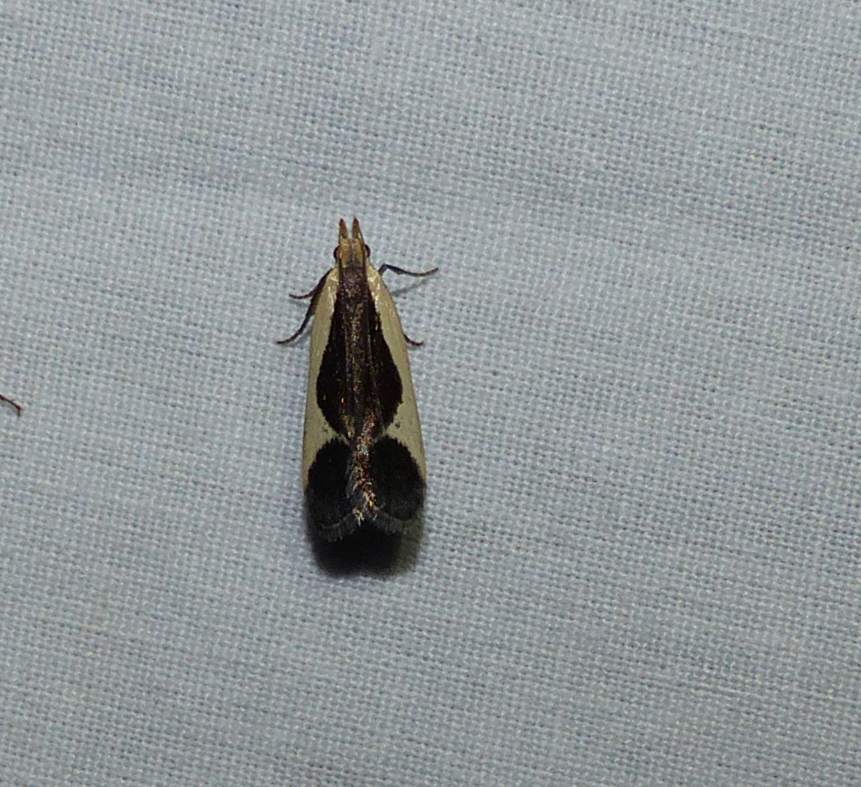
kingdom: Animalia
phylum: Arthropoda
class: Insecta
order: Lepidoptera
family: Gelechiidae
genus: Dichomeris
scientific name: Dichomeris flavocostella
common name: Cream-edged dichomeris moth
